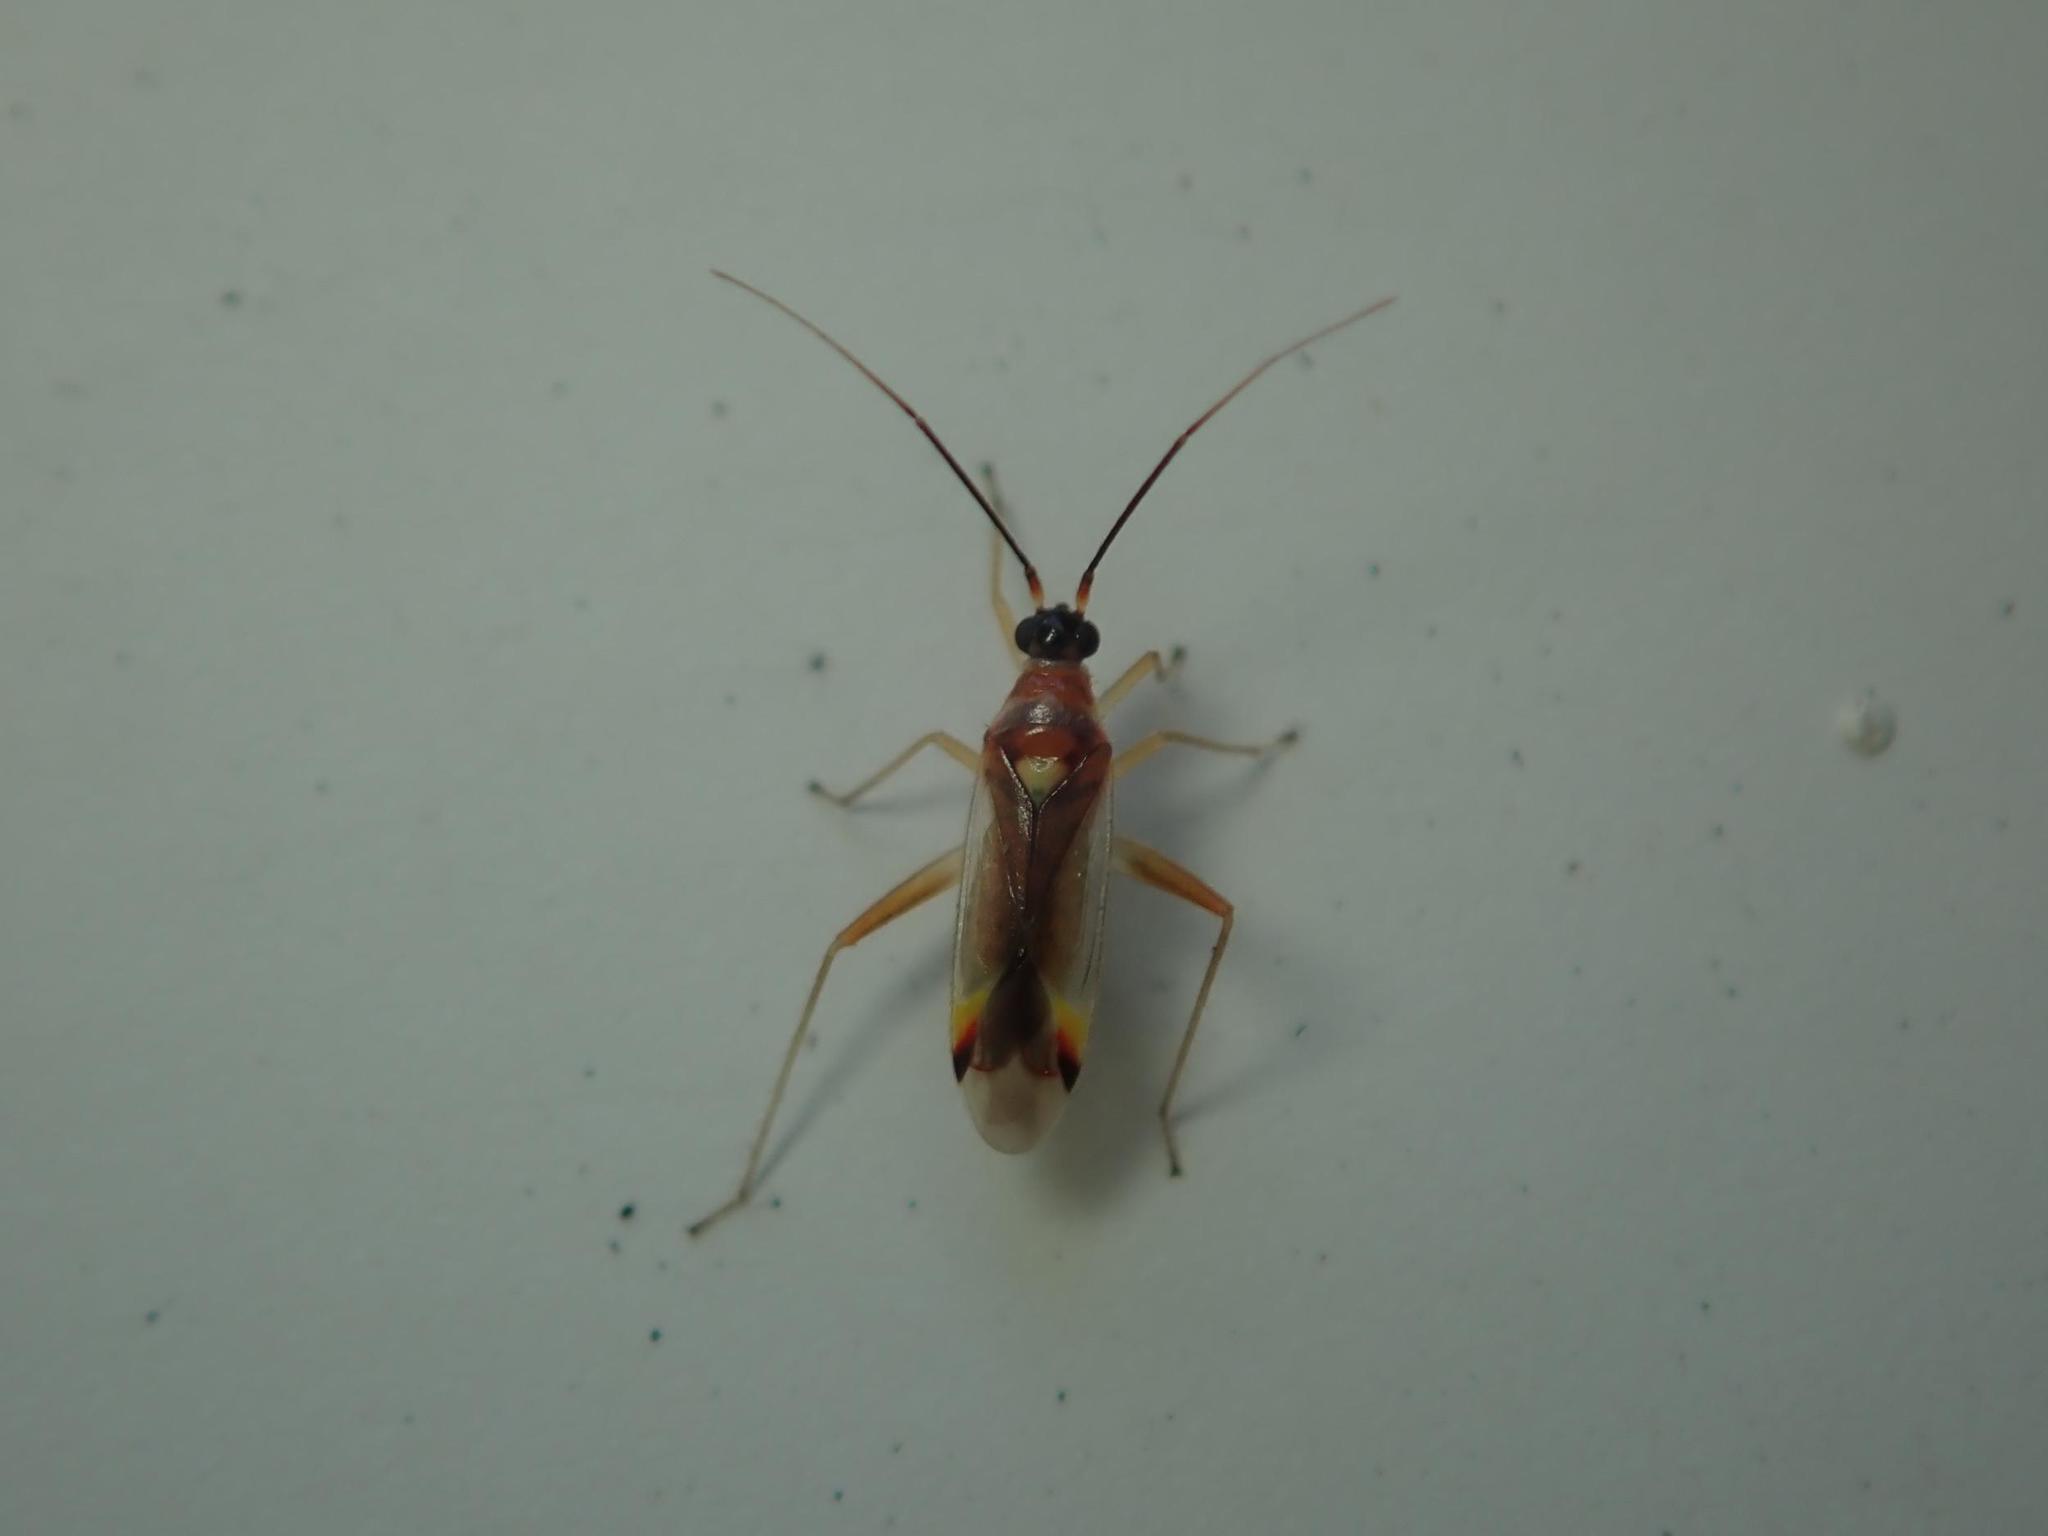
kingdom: Animalia
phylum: Arthropoda
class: Insecta
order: Hemiptera
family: Miridae
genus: Campyloneura
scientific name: Campyloneura virgula
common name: Predatory bug
